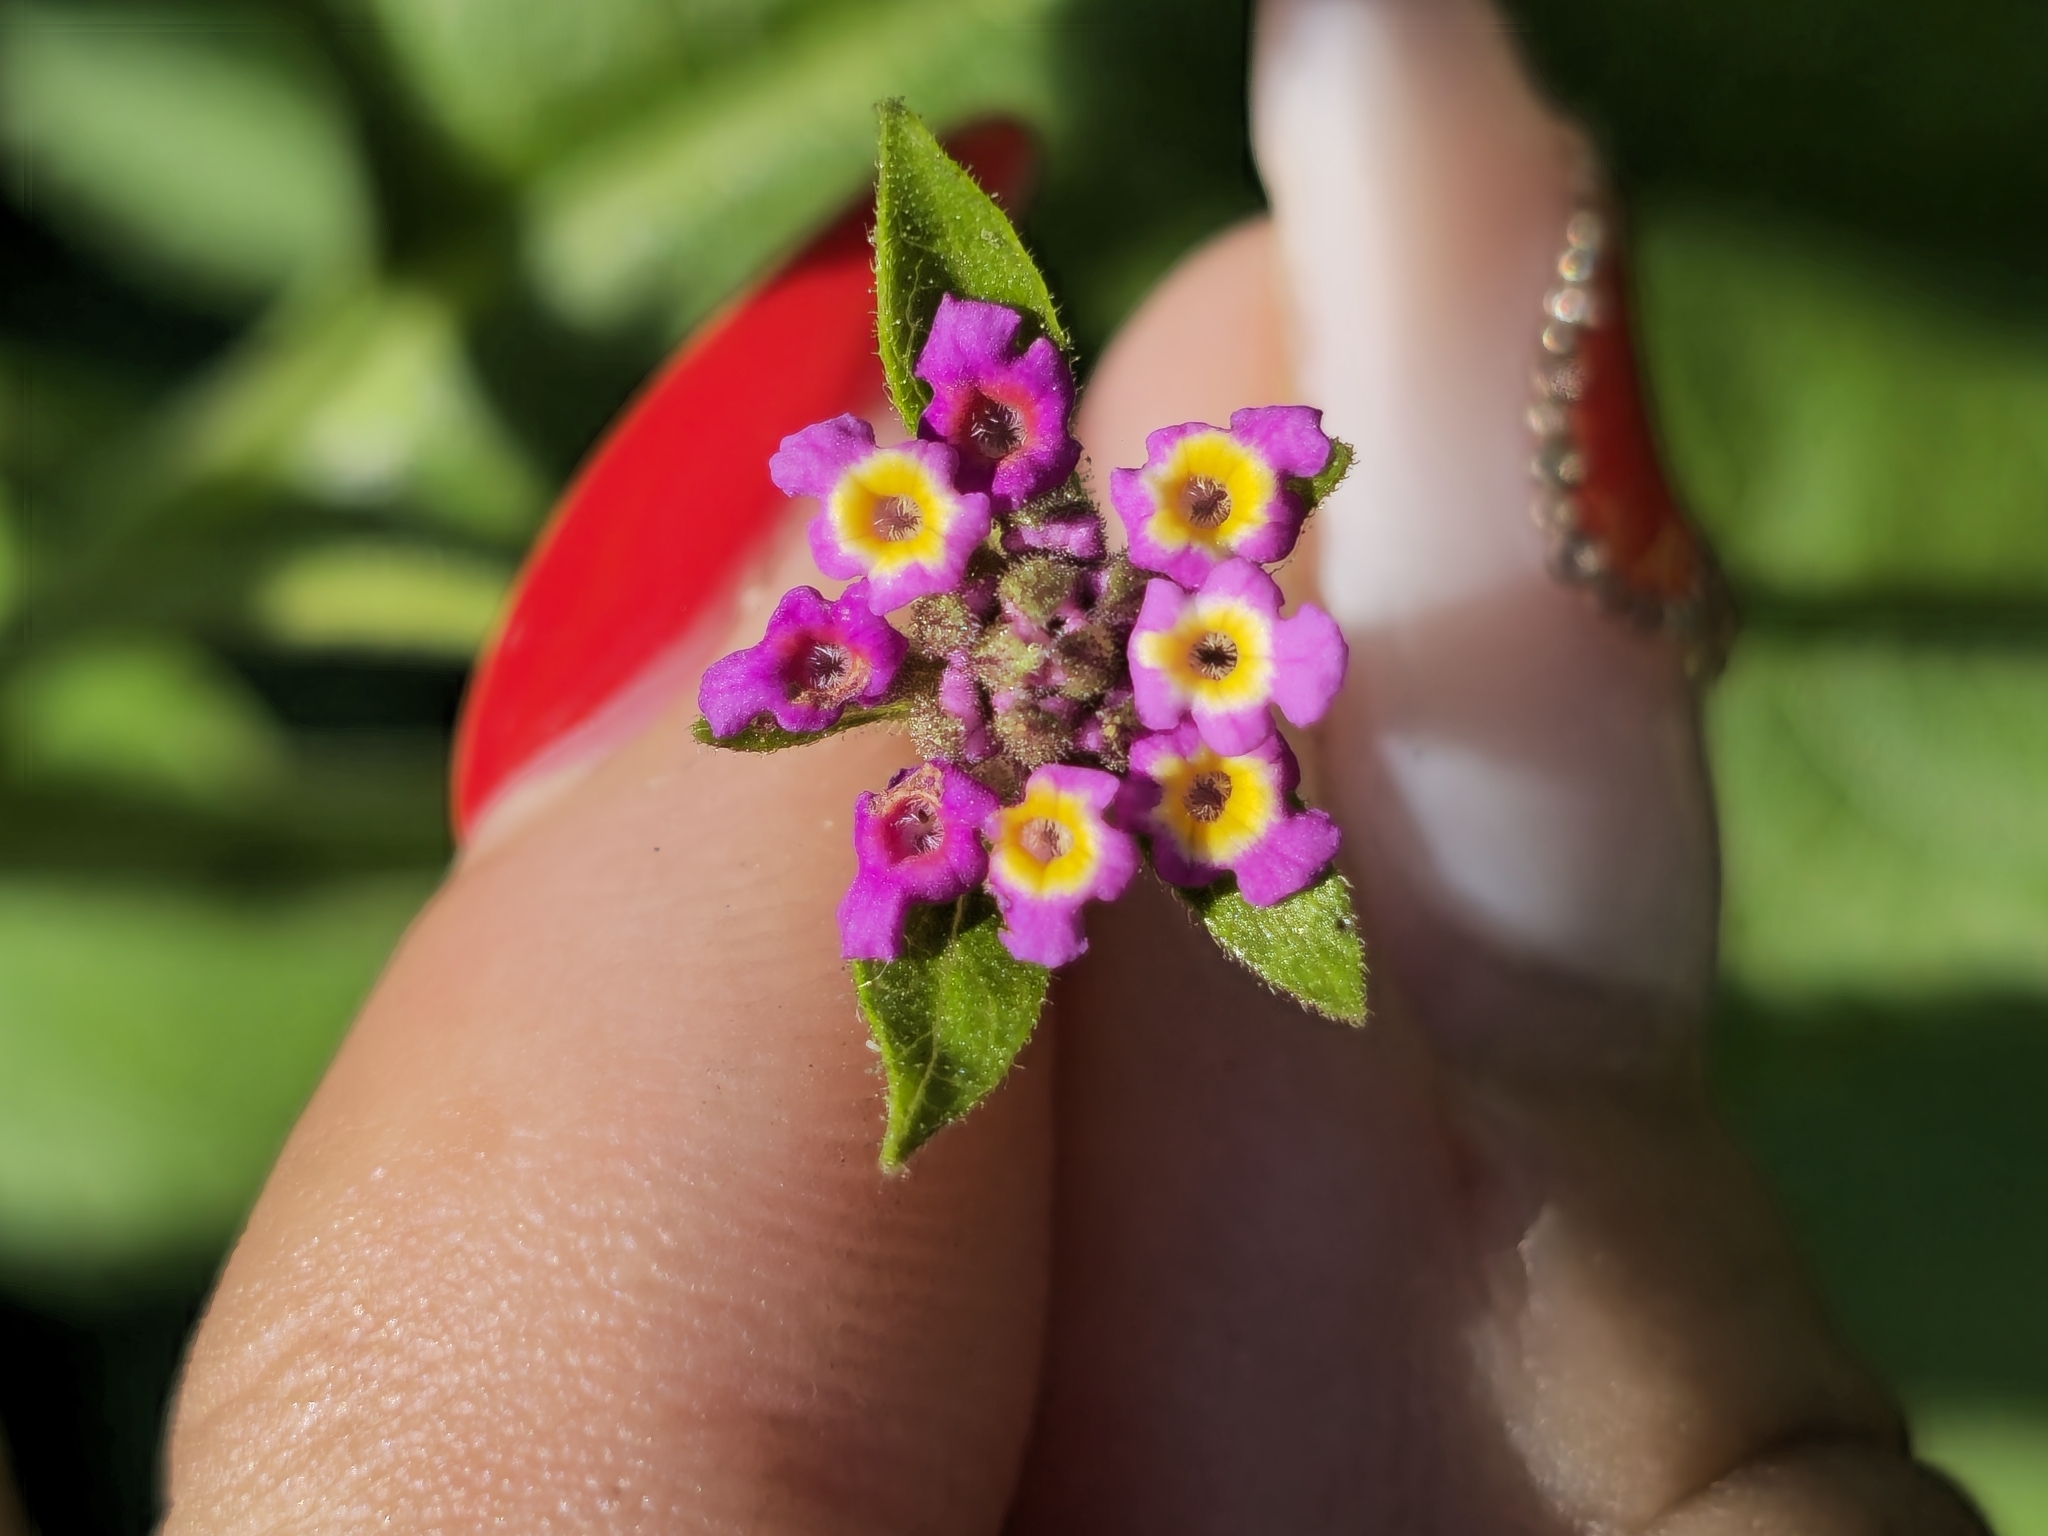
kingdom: Plantae
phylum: Tracheophyta
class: Magnoliopsida
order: Lamiales
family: Verbenaceae
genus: Lantana
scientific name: Lantana micrantha
